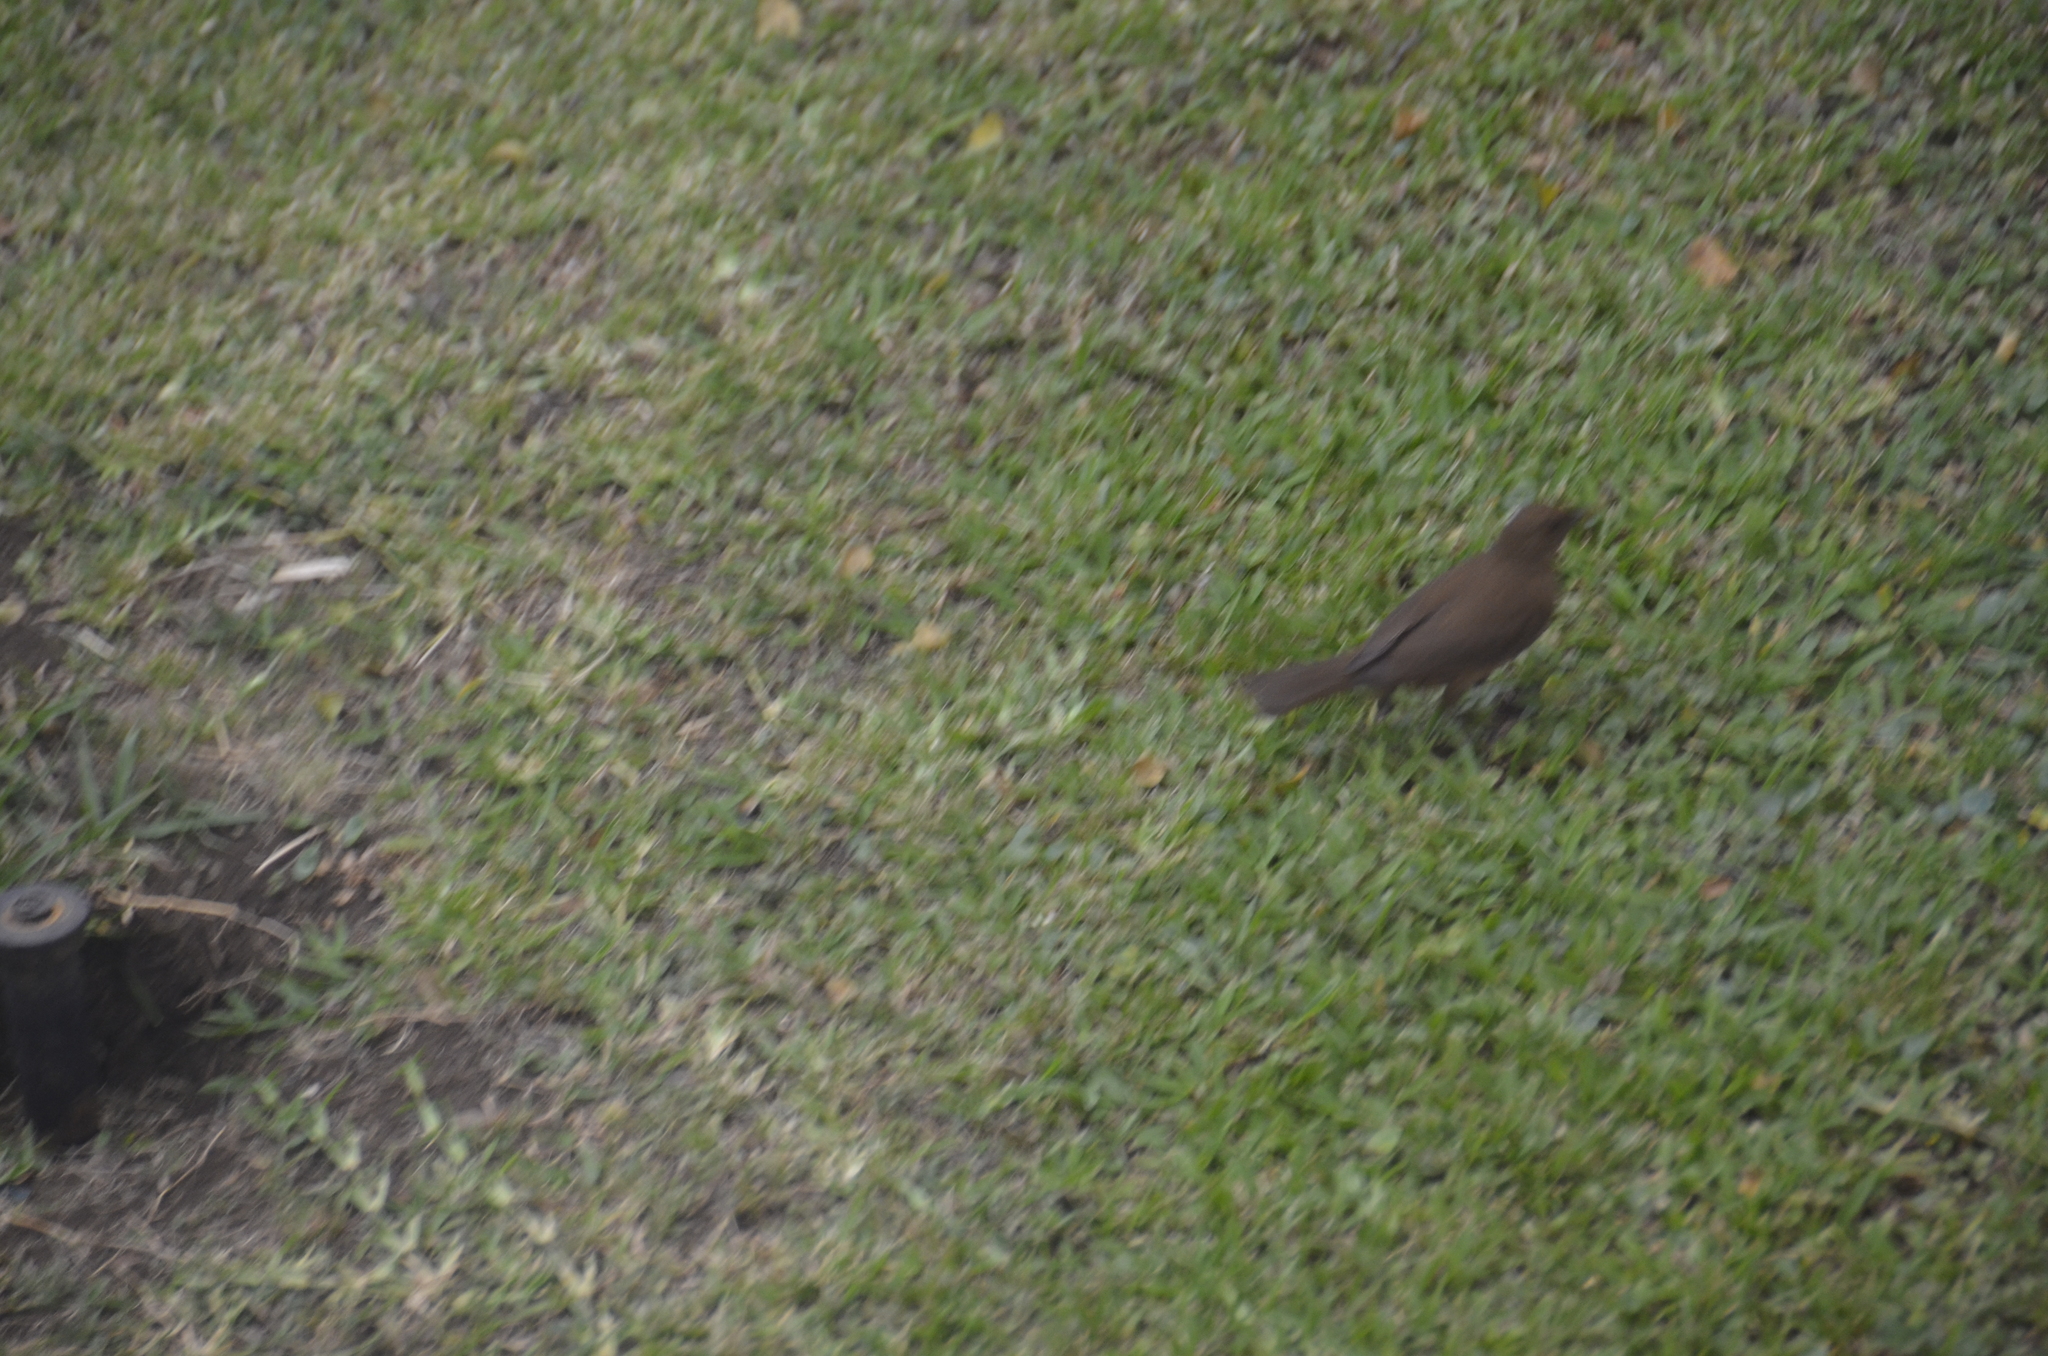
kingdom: Animalia
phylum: Chordata
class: Aves
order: Passeriformes
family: Turdidae
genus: Turdus
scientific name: Turdus grayi
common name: Clay-colored thrush
